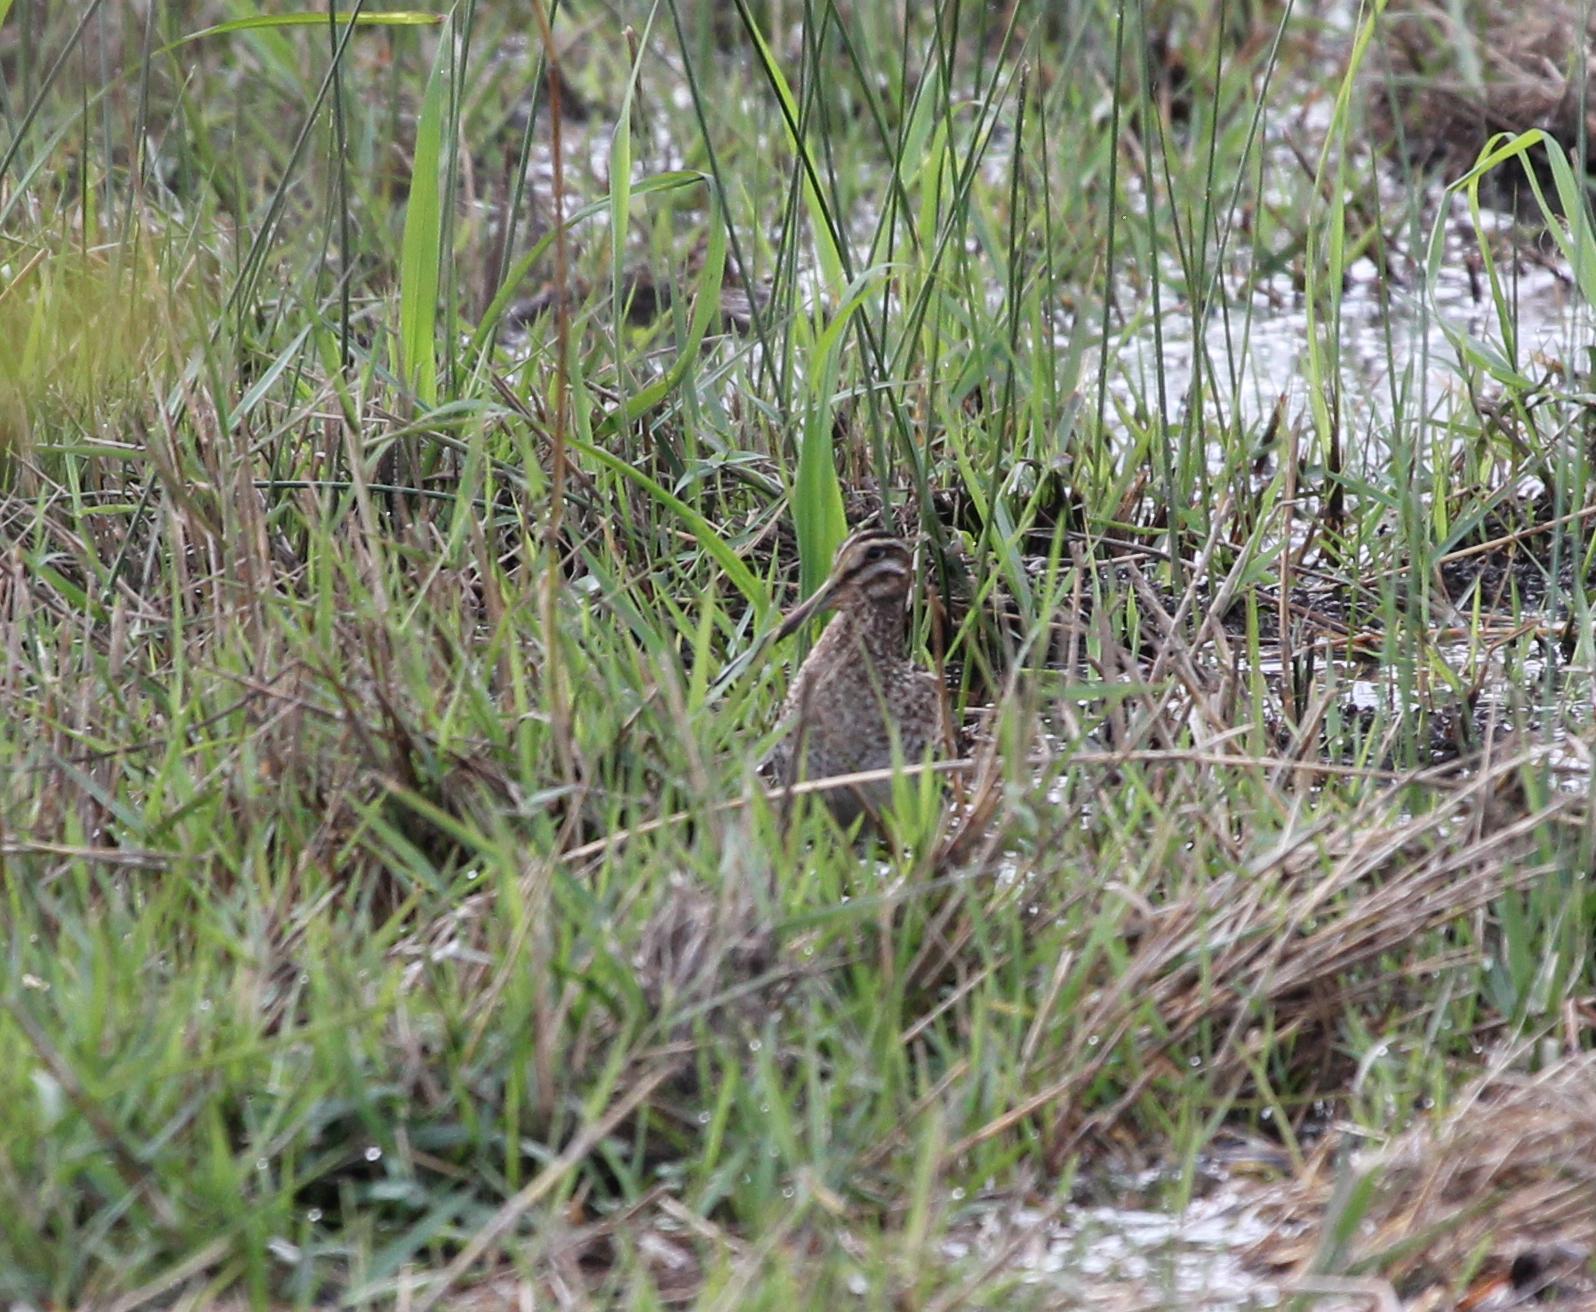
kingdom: Animalia
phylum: Chordata
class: Aves
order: Charadriiformes
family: Scolopacidae
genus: Gallinago
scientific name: Gallinago delicata
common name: Wilson's snipe
